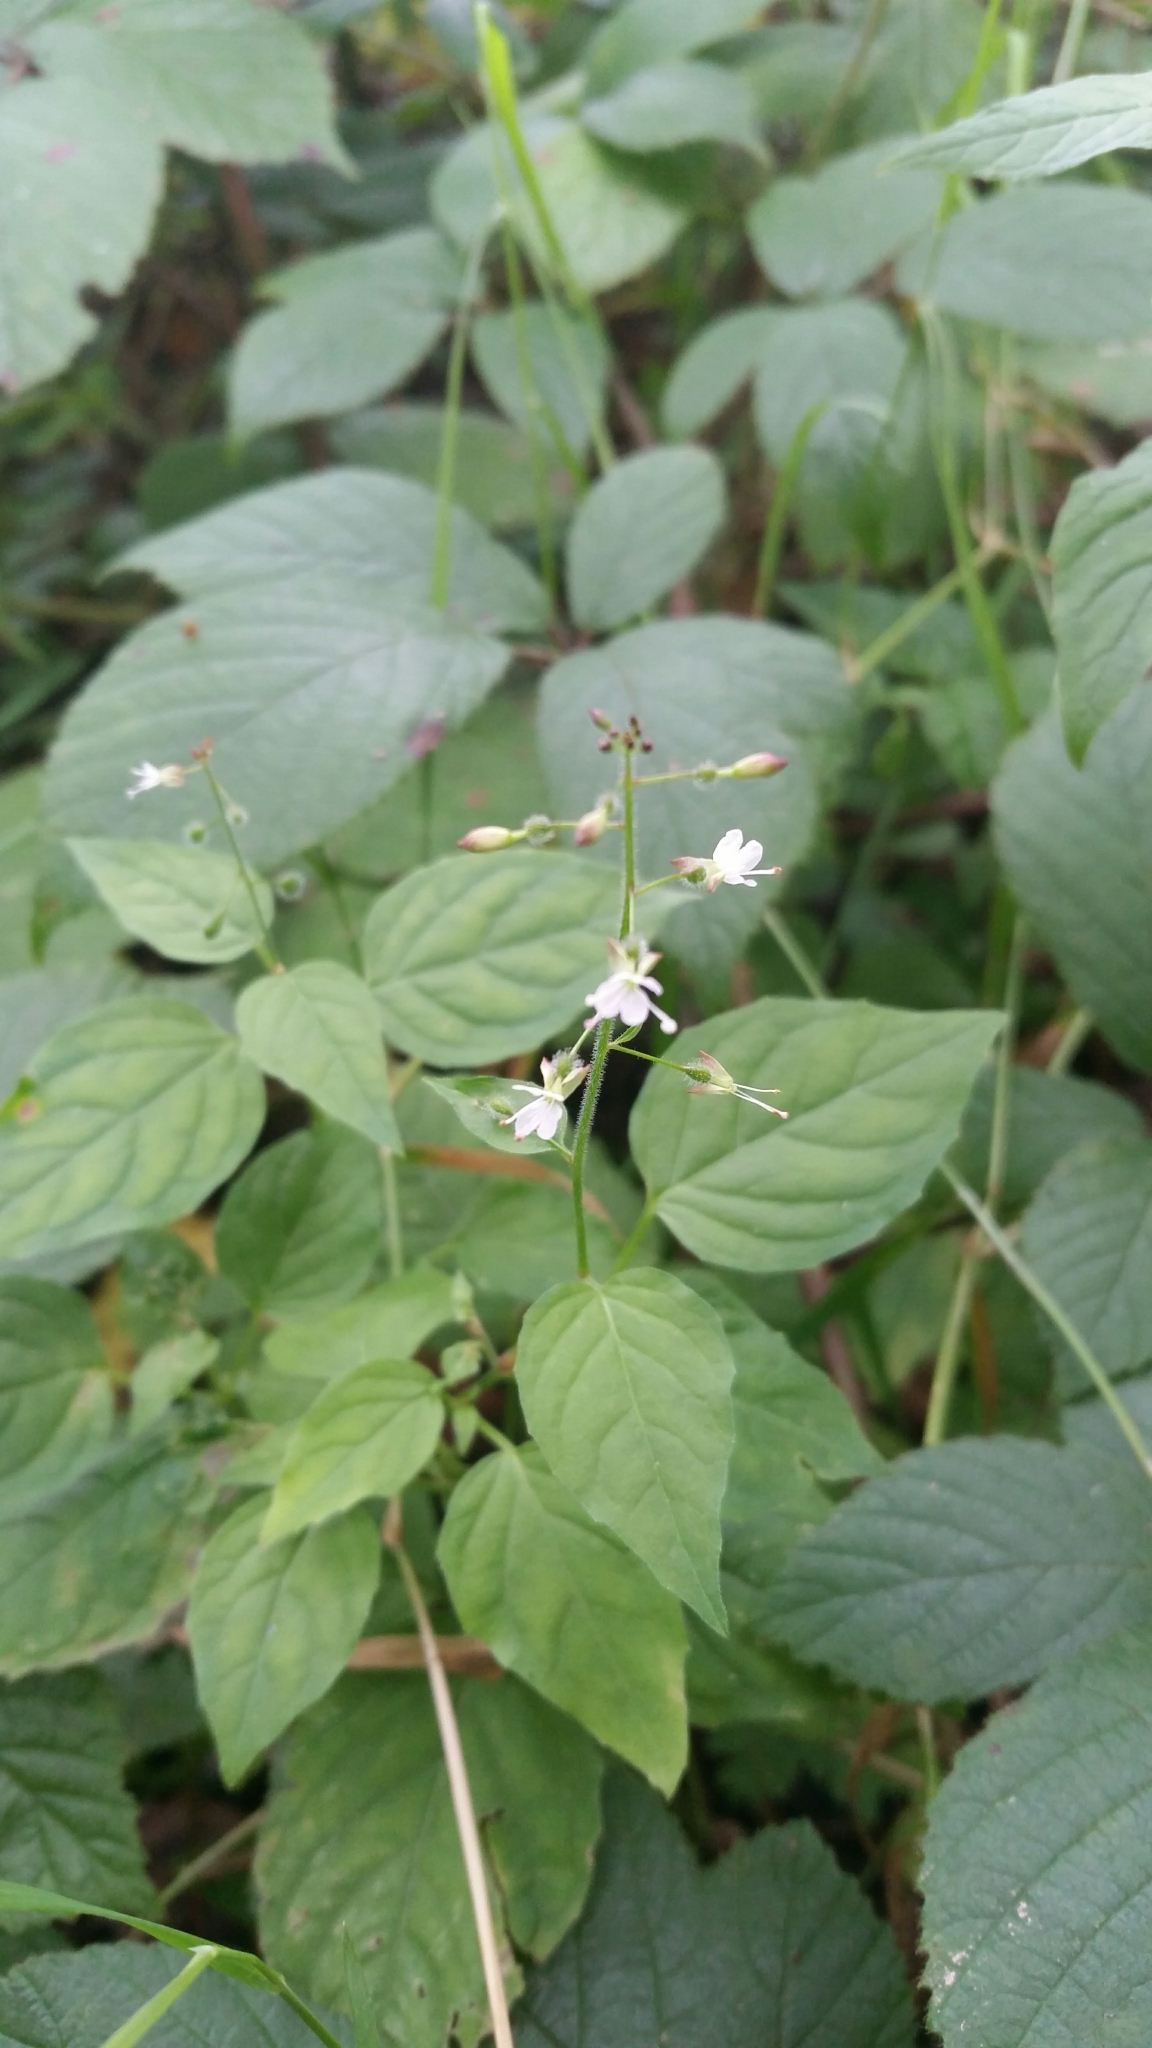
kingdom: Plantae
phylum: Tracheophyta
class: Magnoliopsida
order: Myrtales
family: Onagraceae
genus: Circaea
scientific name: Circaea lutetiana
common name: Enchanter's-nightshade
